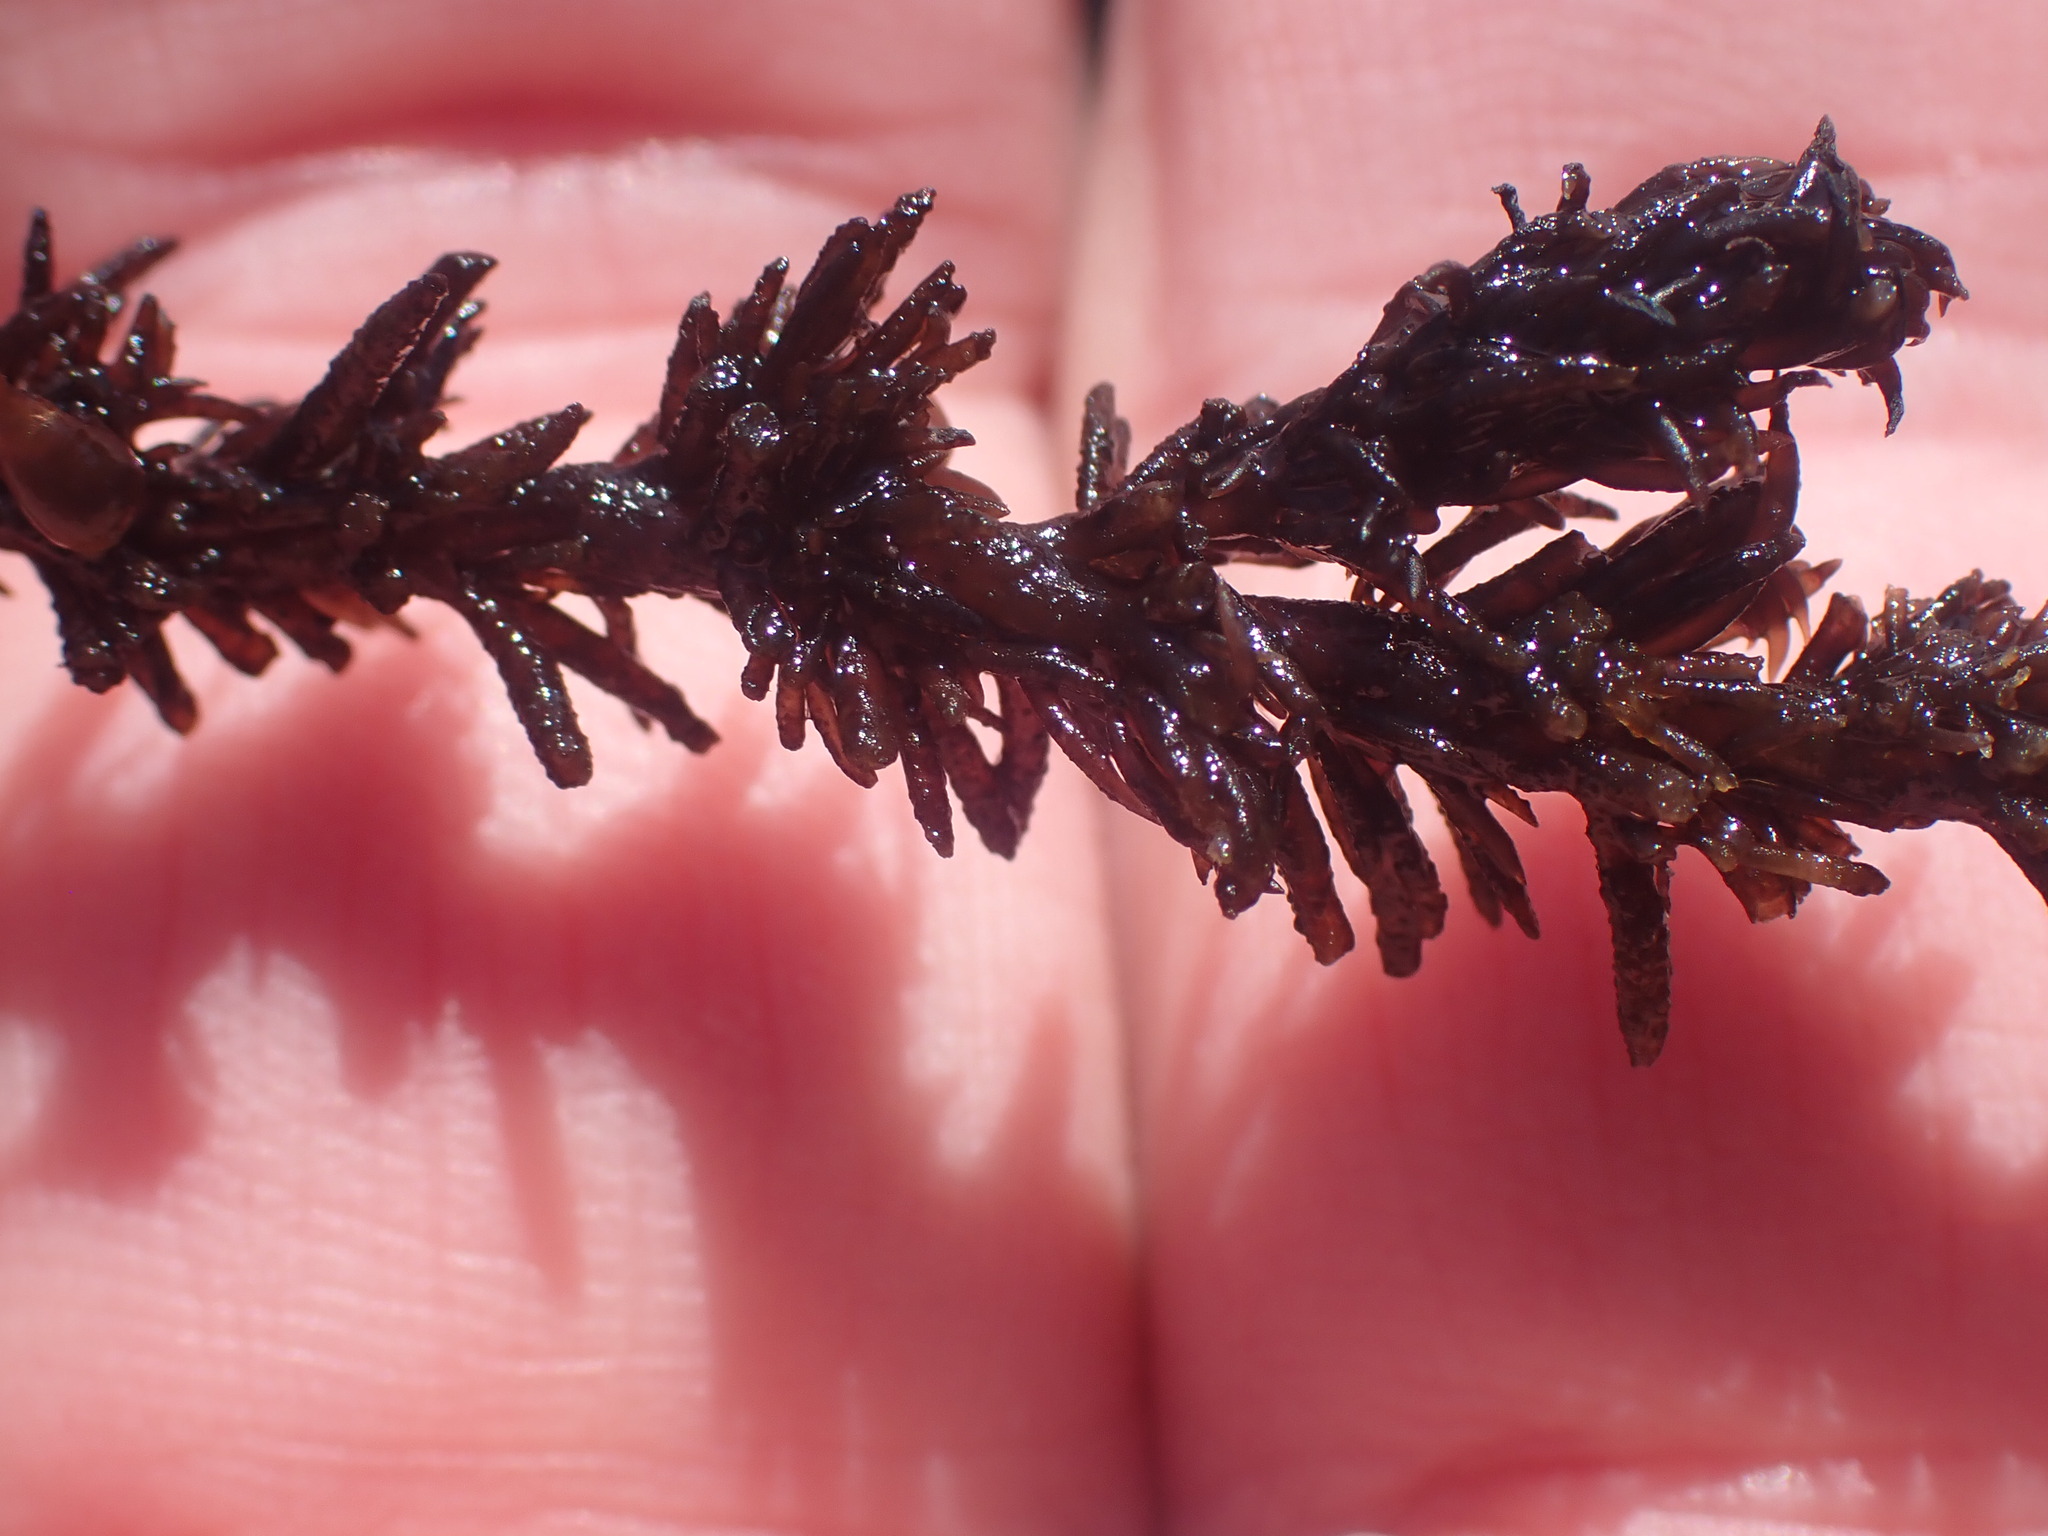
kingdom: Plantae
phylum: Rhodophyta
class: Florideophyceae
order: Ceramiales
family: Rhodomelaceae
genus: Neorhodomela
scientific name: Neorhodomela larix
